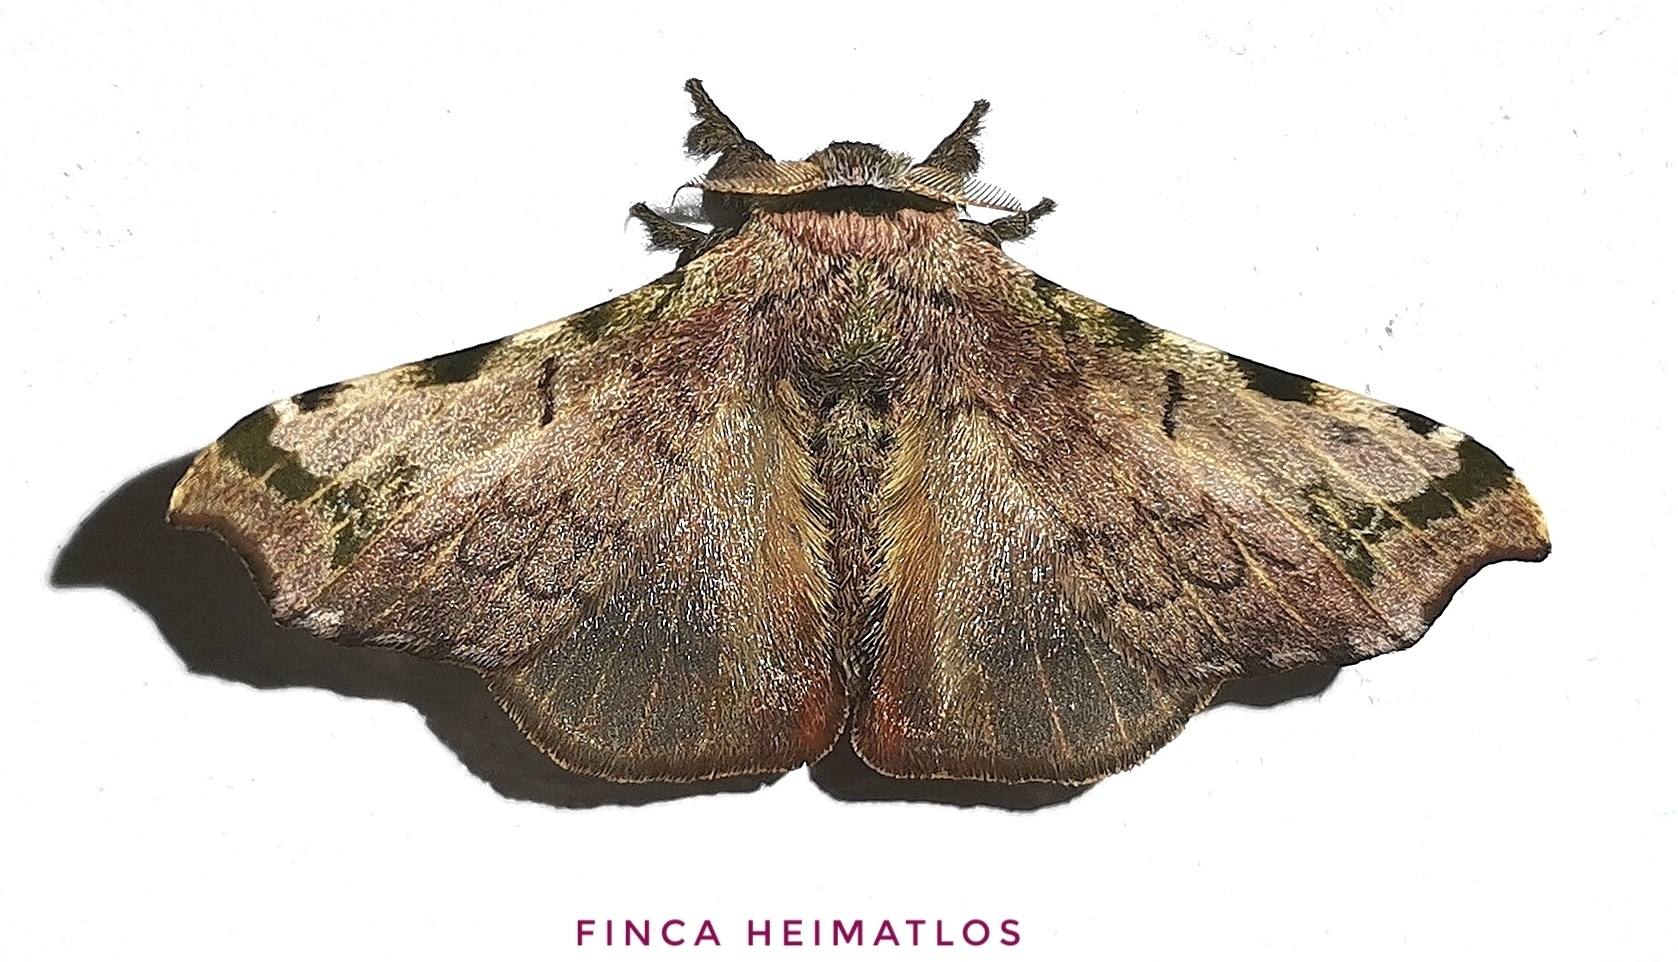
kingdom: Animalia
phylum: Arthropoda
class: Insecta
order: Lepidoptera
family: Bombycidae
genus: Quentalia
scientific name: Quentalia ephonia
